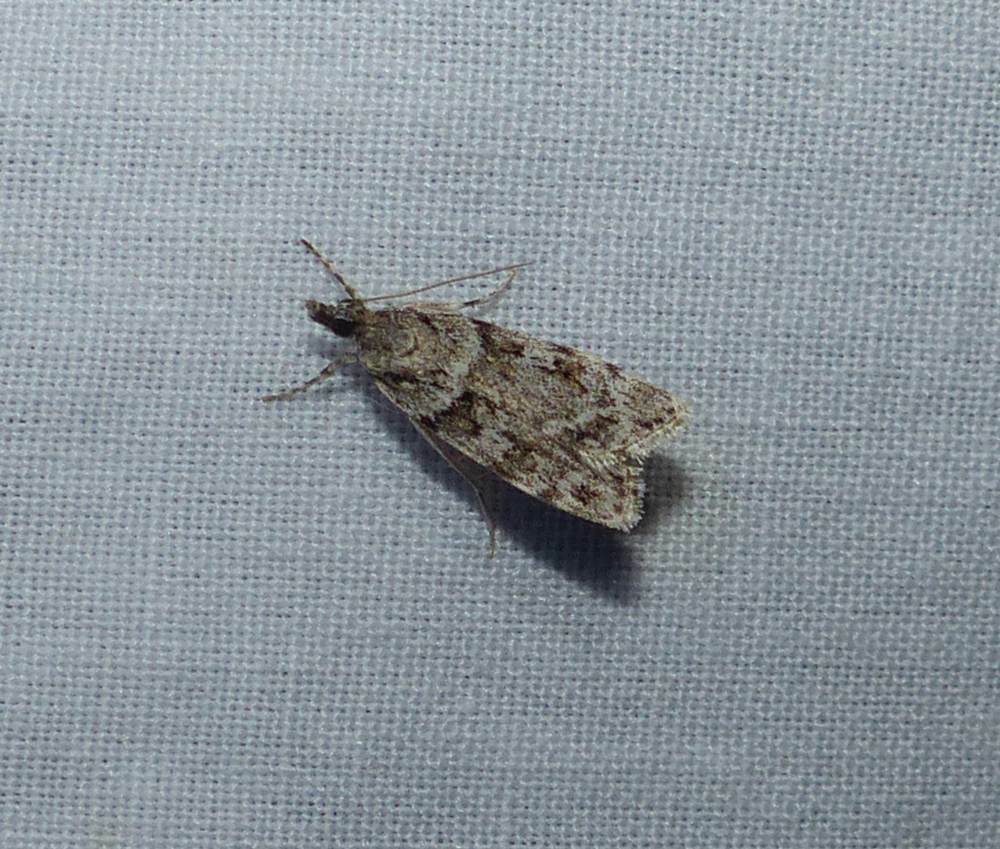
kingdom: Animalia
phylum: Arthropoda
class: Insecta
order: Lepidoptera
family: Crambidae
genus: Scoparia
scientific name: Scoparia biplagialis
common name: Double-striped scoparia moth
